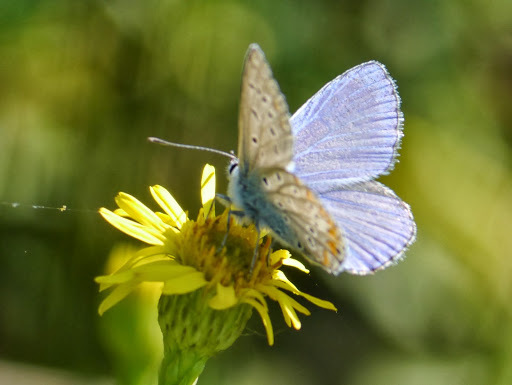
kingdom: Animalia
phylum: Arthropoda
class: Insecta
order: Lepidoptera
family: Lycaenidae
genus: Polyommatus
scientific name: Polyommatus icarus
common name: Common blue
